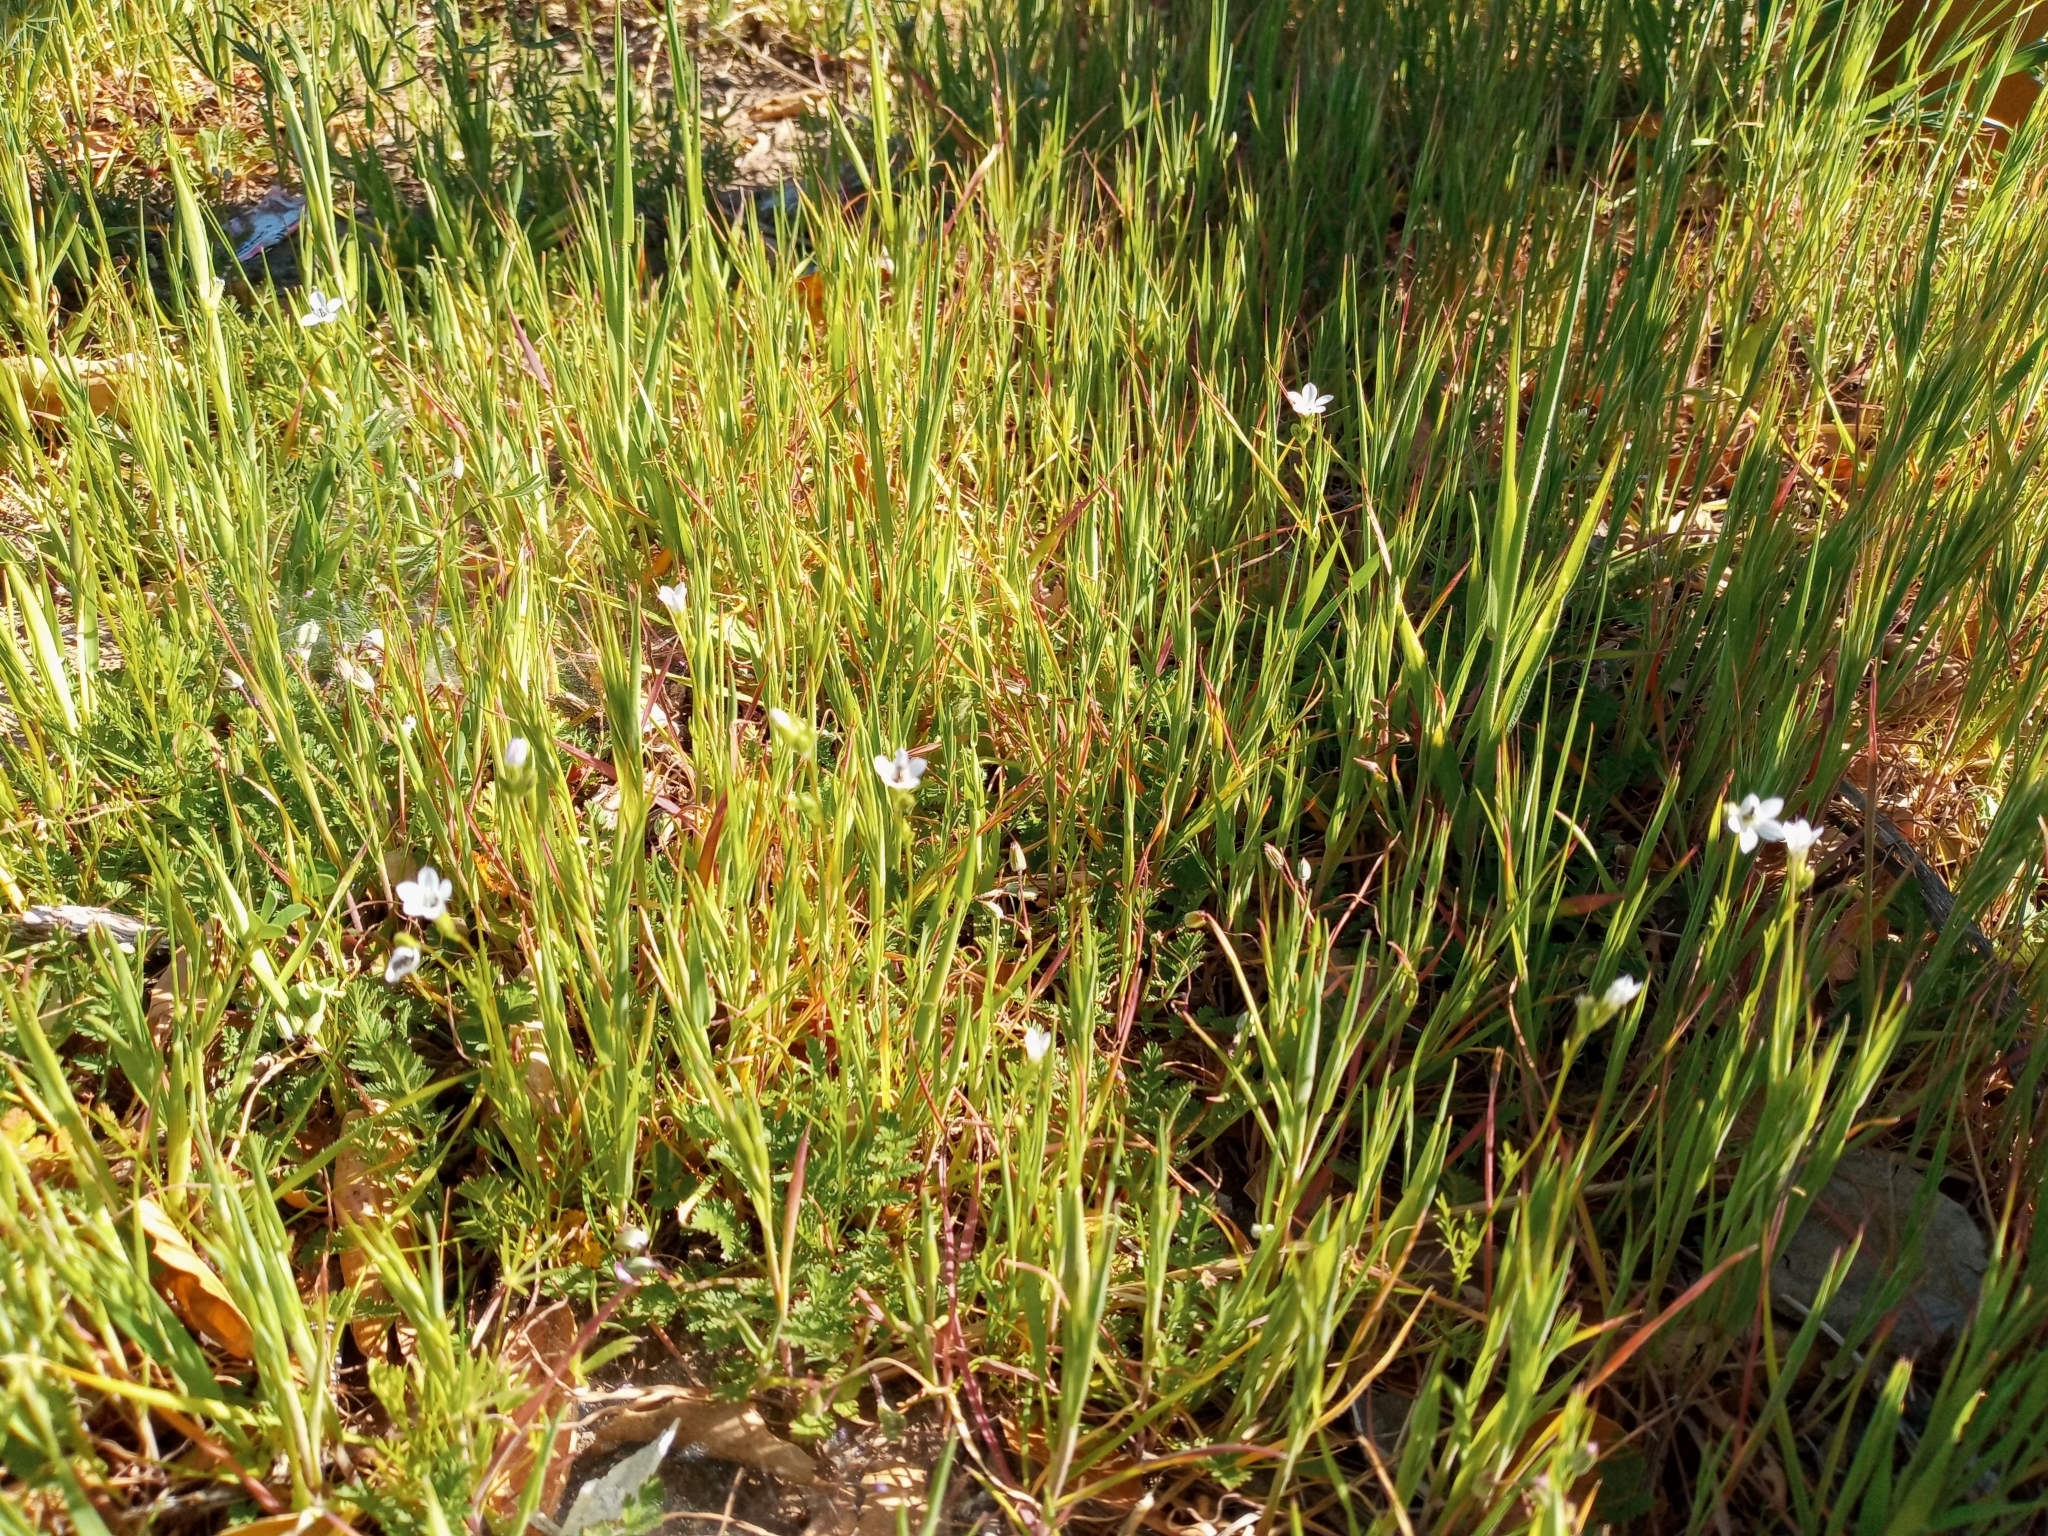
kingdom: Plantae
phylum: Tracheophyta
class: Magnoliopsida
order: Ericales
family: Polemoniaceae
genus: Gilia
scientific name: Gilia angelensis
